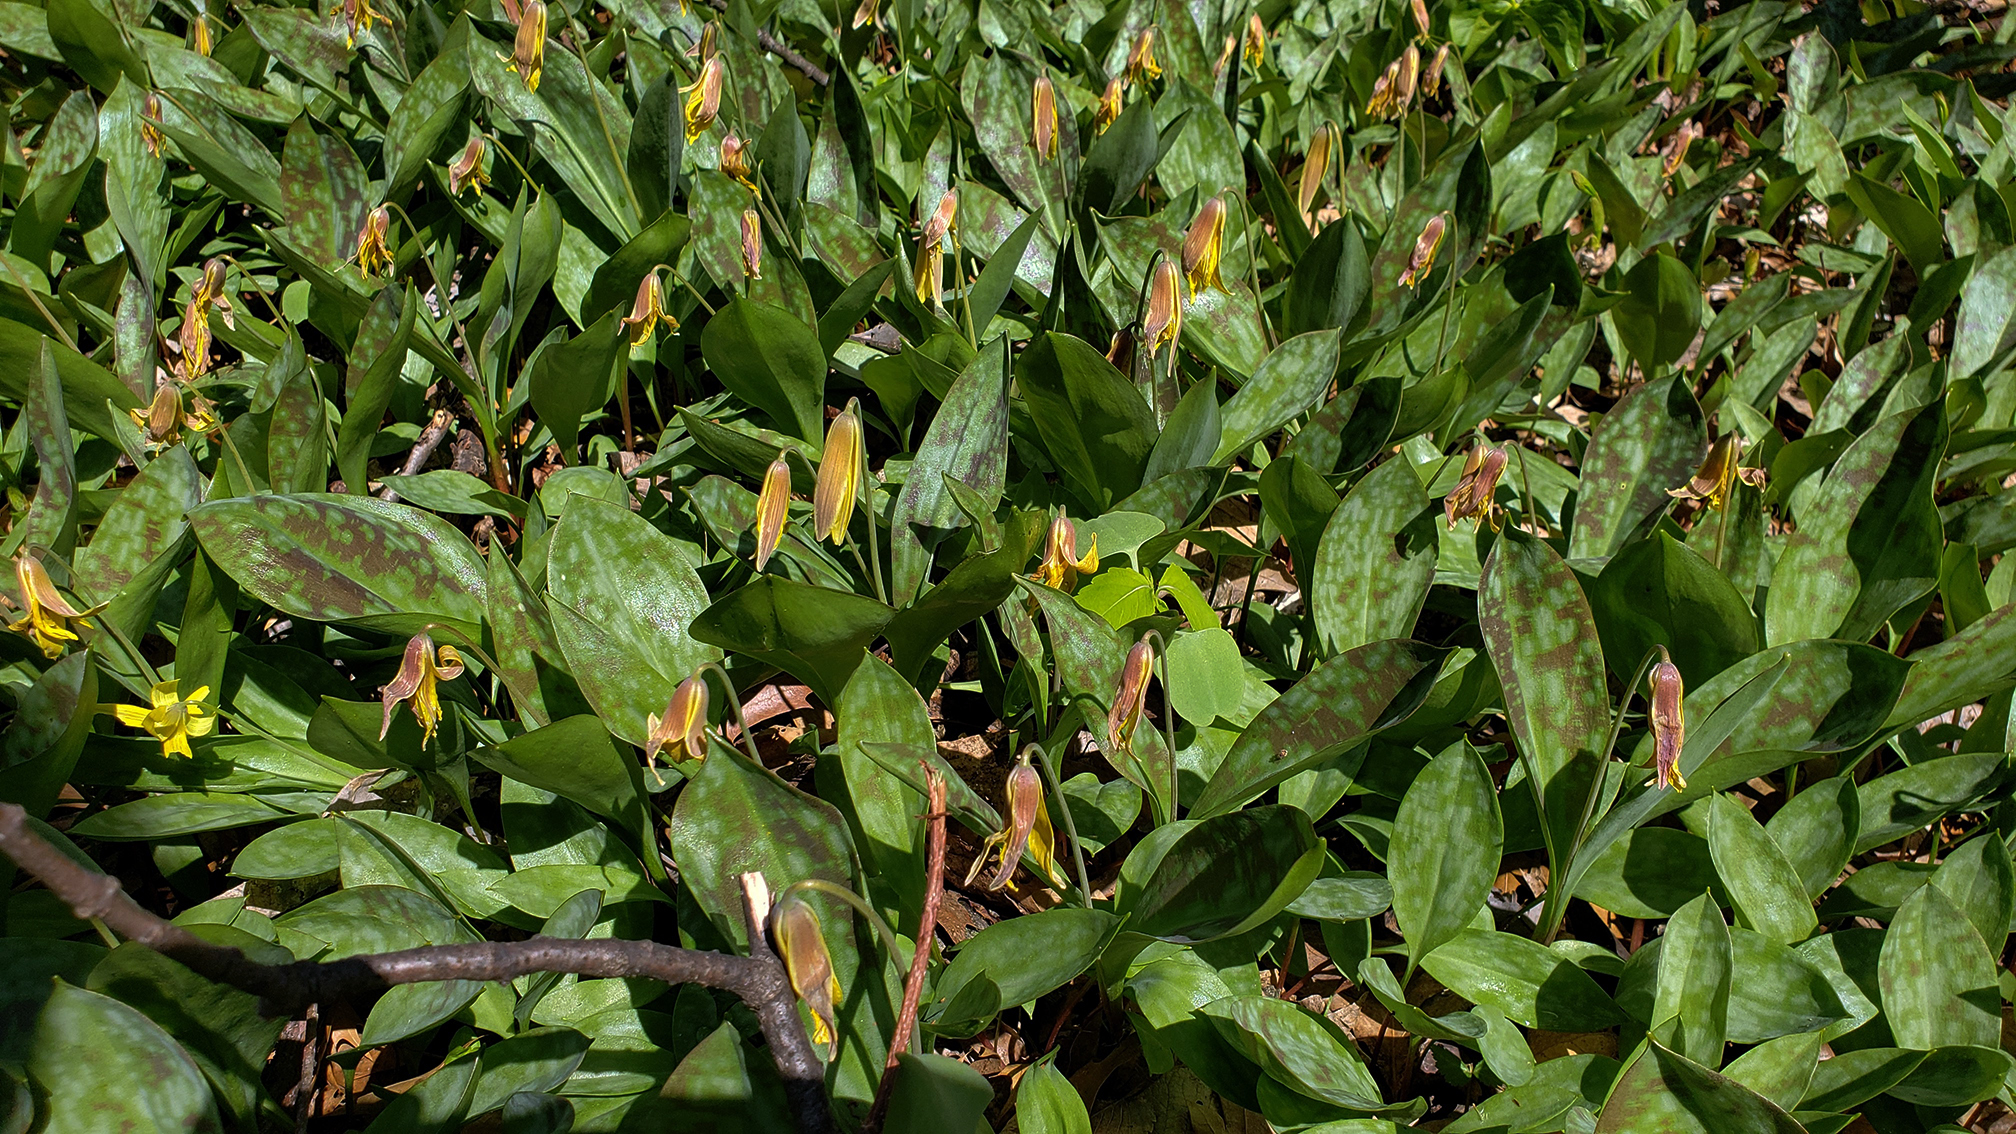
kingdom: Plantae
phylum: Tracheophyta
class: Liliopsida
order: Liliales
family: Liliaceae
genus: Erythronium
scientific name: Erythronium americanum
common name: Yellow adder's-tongue
